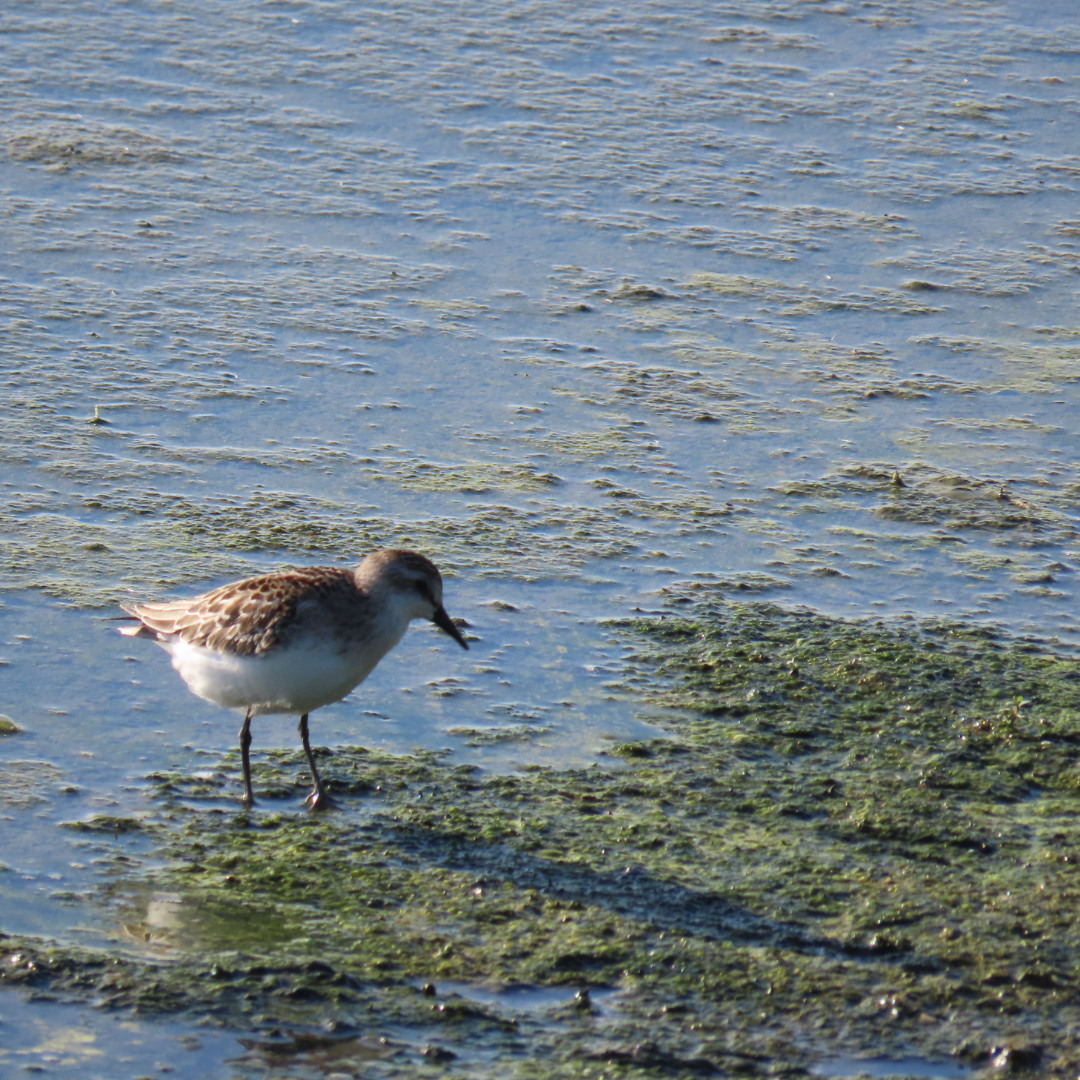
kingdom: Animalia
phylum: Chordata
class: Aves
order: Charadriiformes
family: Scolopacidae
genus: Calidris
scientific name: Calidris pusilla
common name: Semipalmated sandpiper
